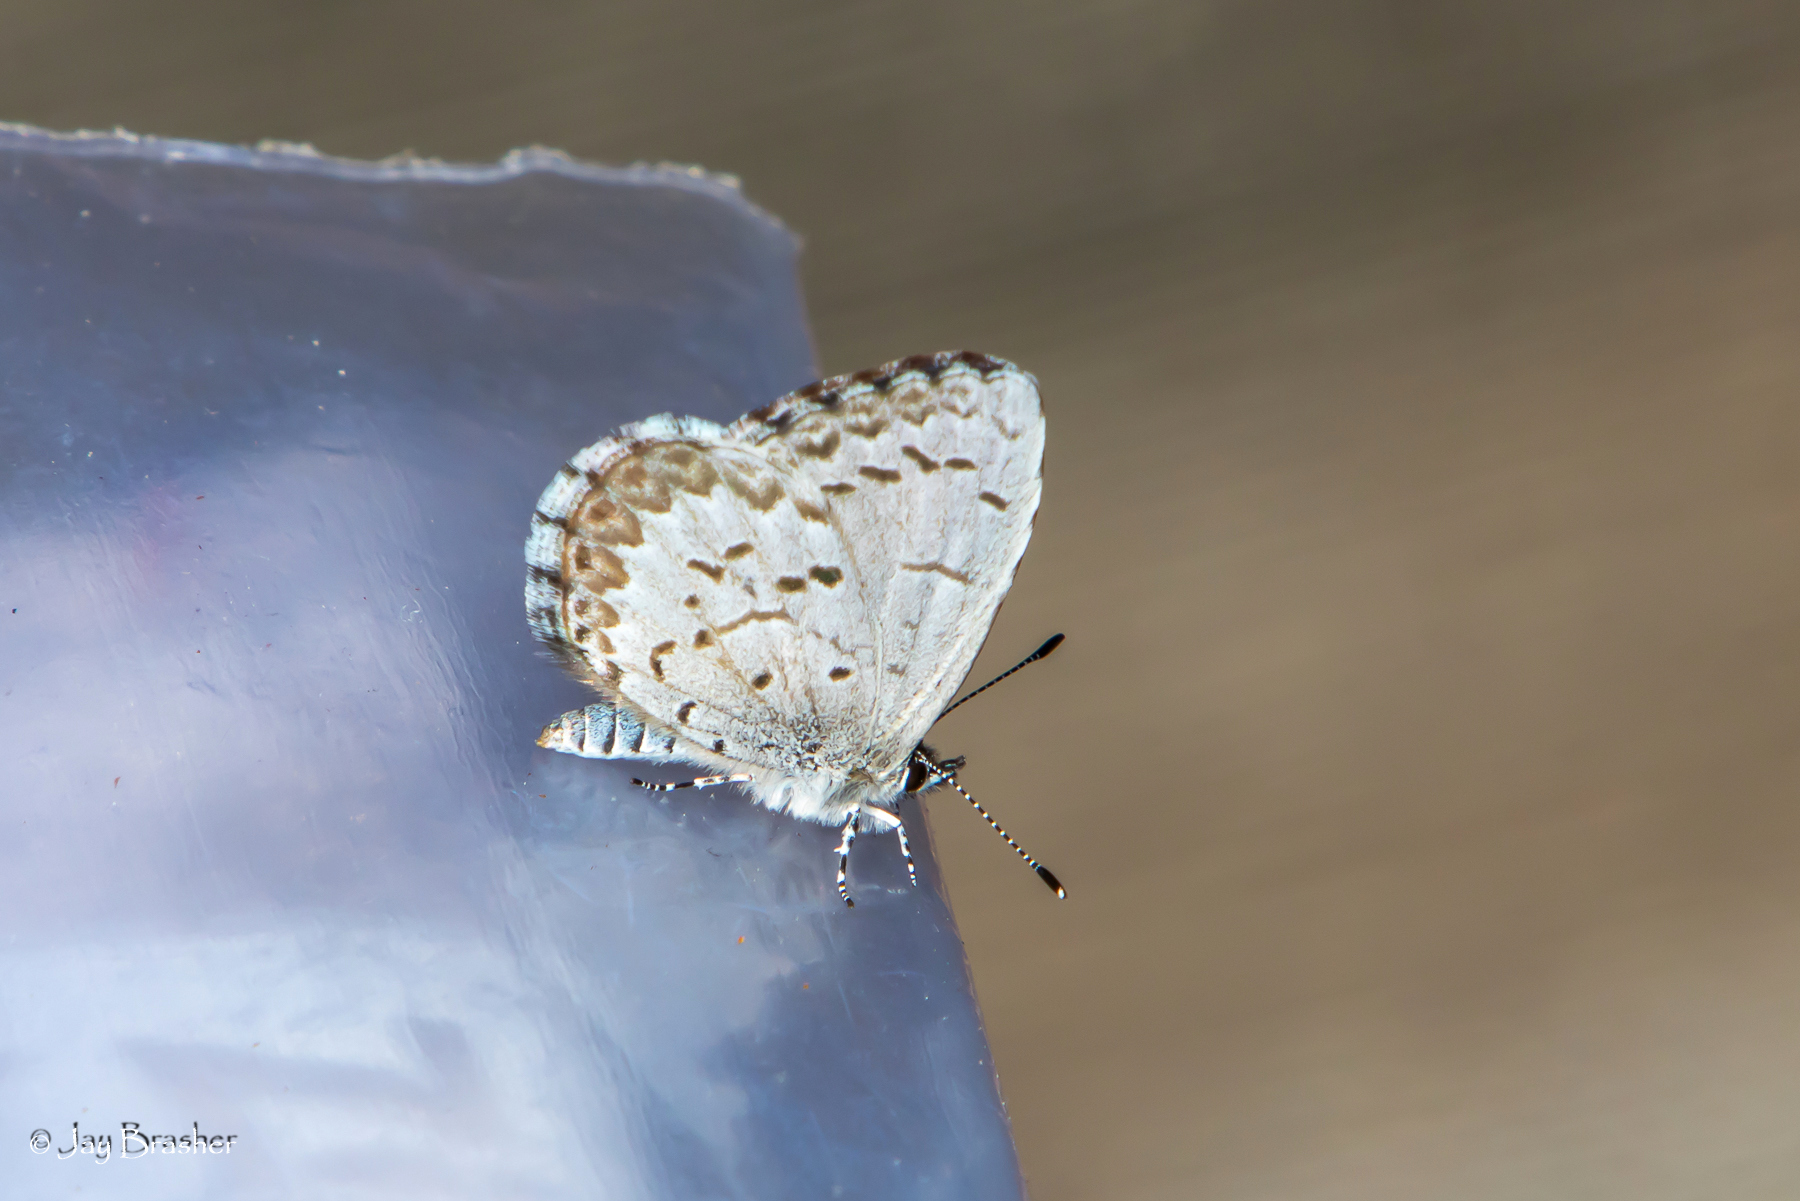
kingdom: Animalia
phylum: Arthropoda
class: Insecta
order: Lepidoptera
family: Lycaenidae
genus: Celastrina
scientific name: Celastrina lucia
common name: Lucia azure
